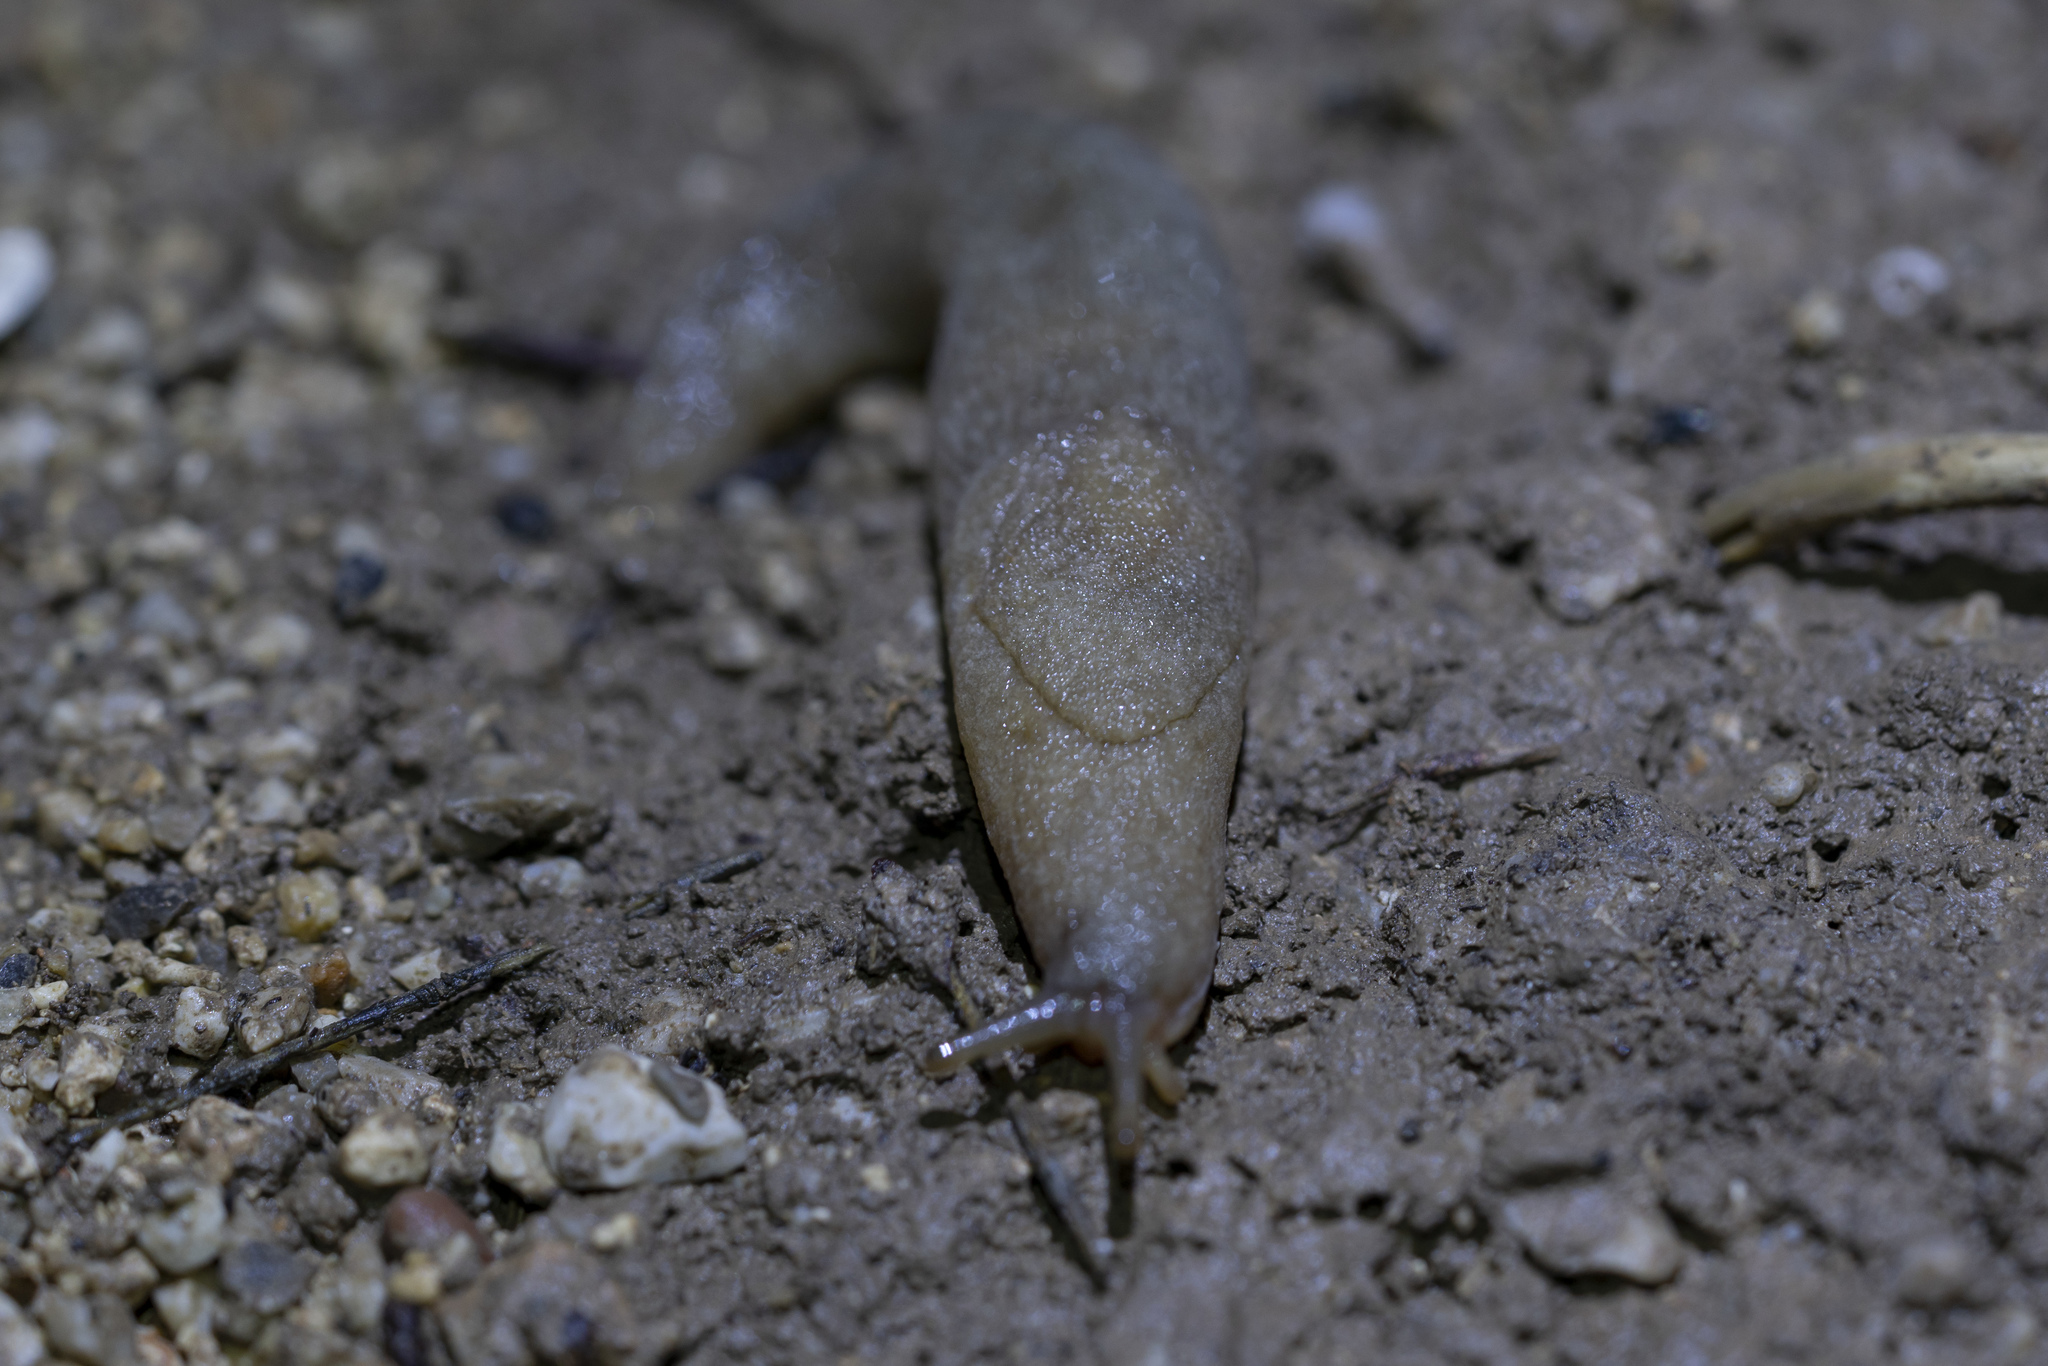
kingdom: Animalia
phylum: Mollusca
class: Gastropoda
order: Stylommatophora
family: Milacidae
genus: Tandonia
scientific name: Tandonia pageti
